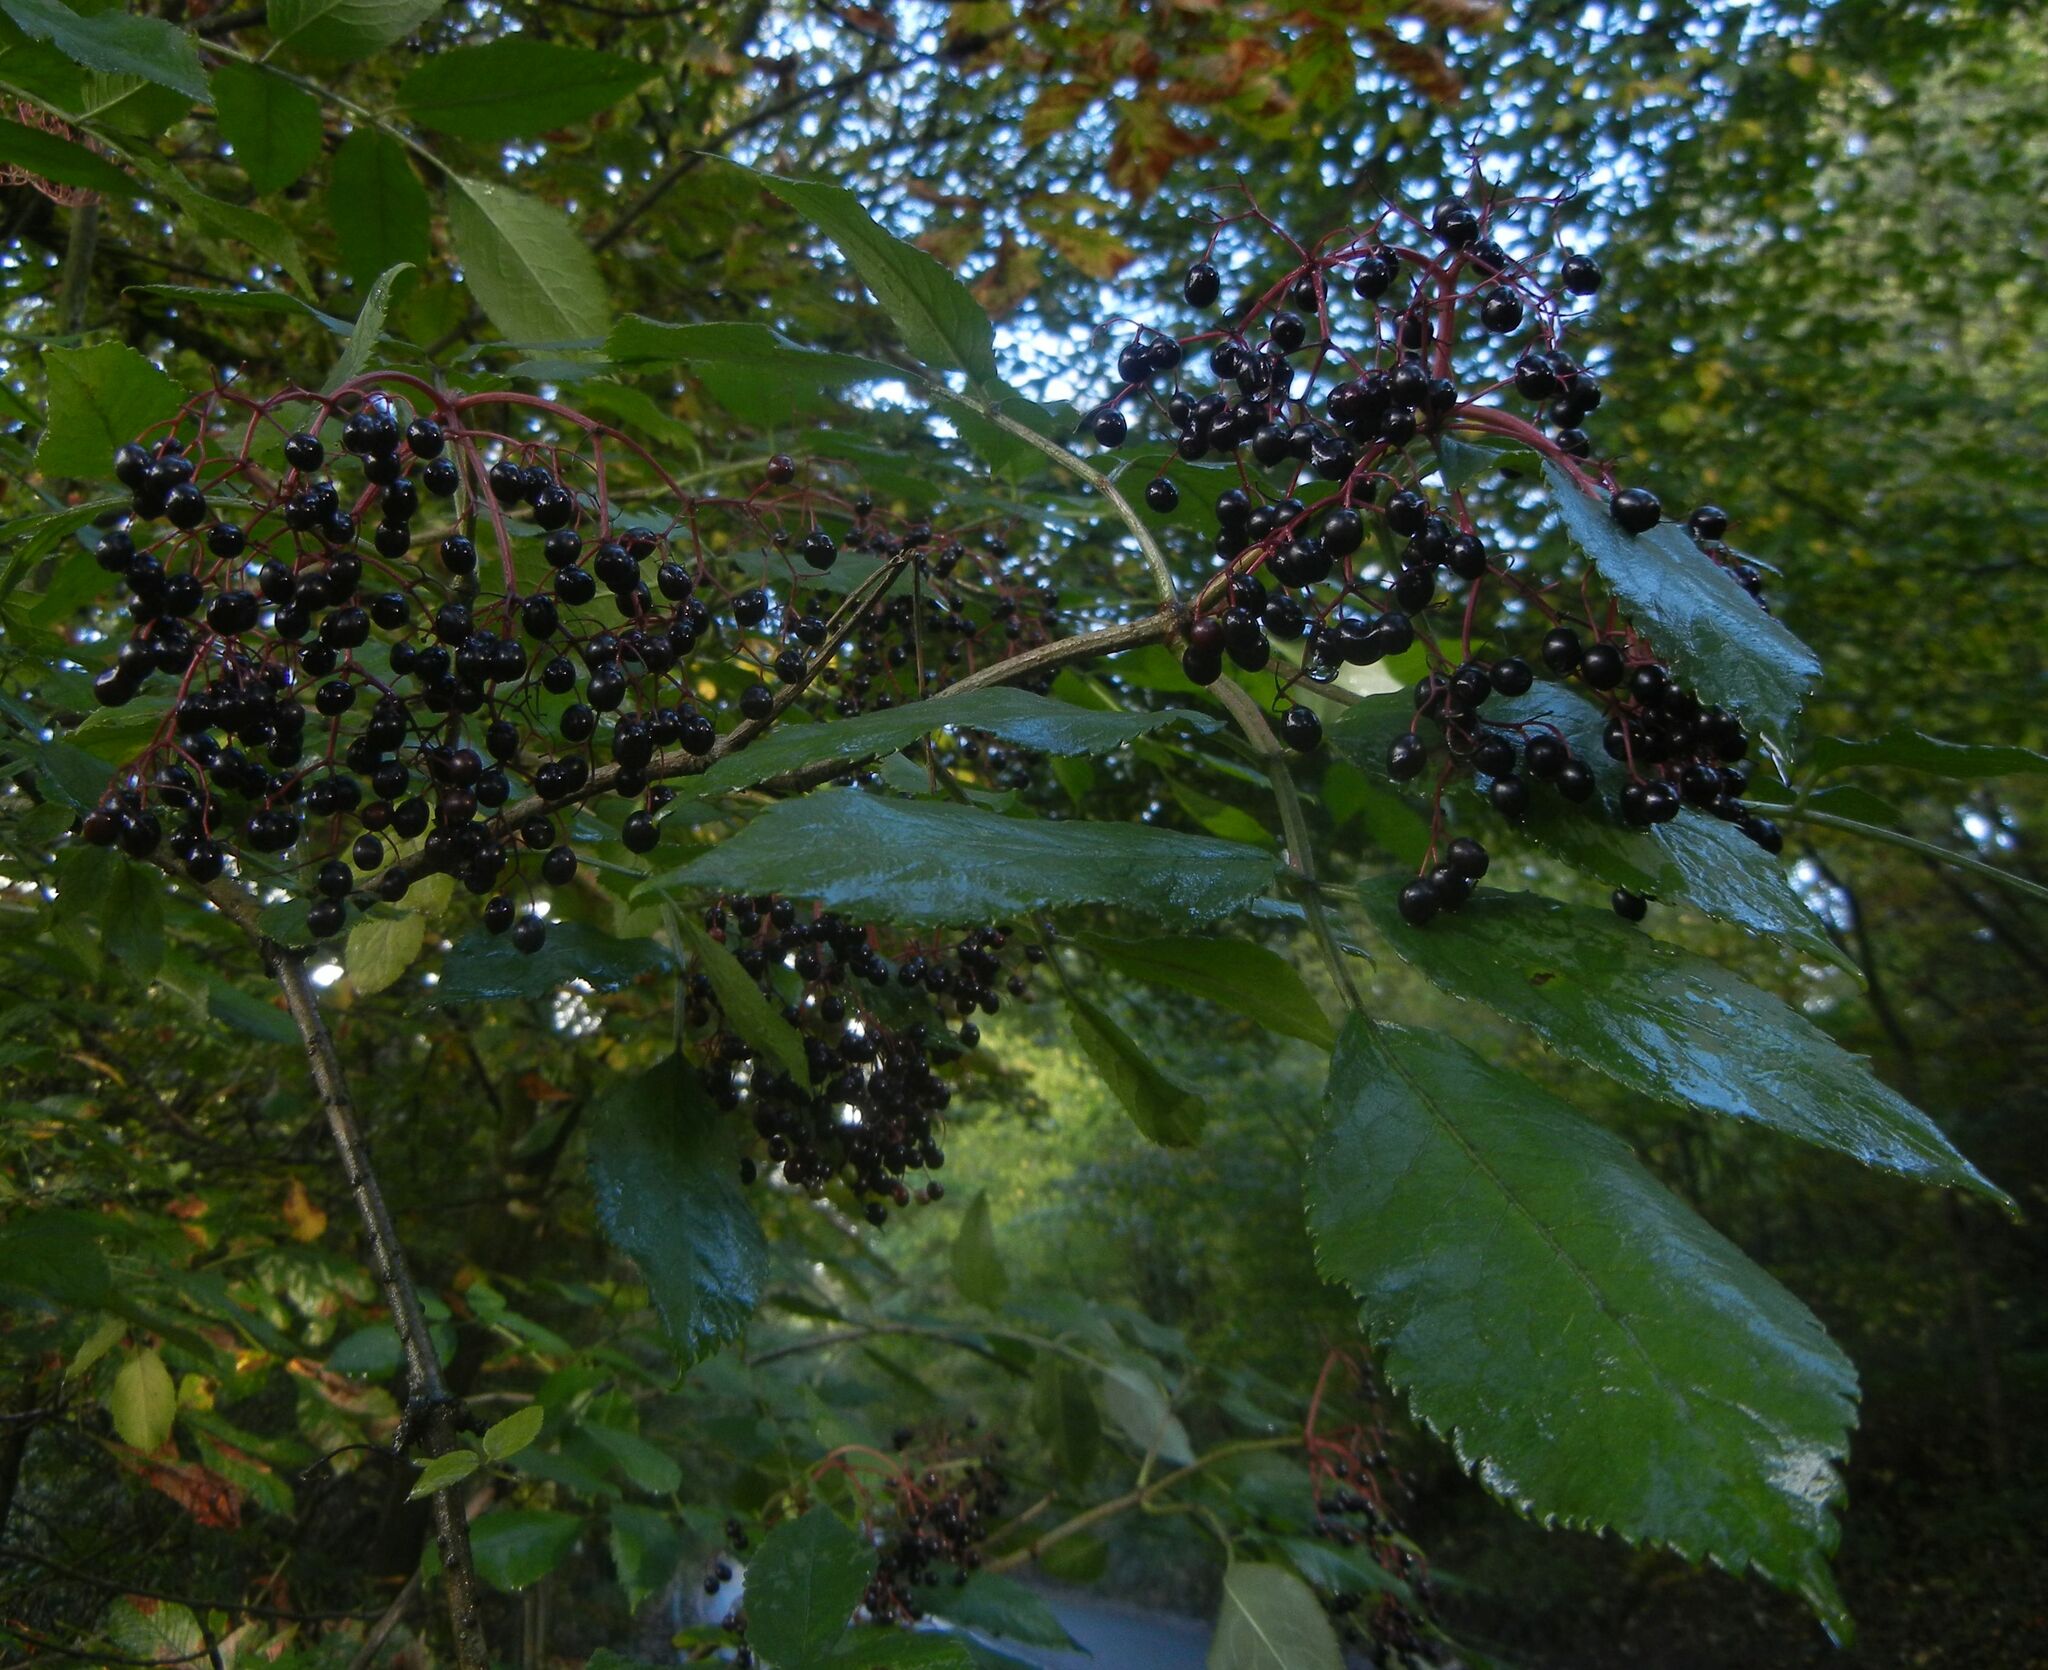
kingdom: Plantae
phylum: Tracheophyta
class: Magnoliopsida
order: Dipsacales
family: Viburnaceae
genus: Sambucus
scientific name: Sambucus nigra
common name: Elder
